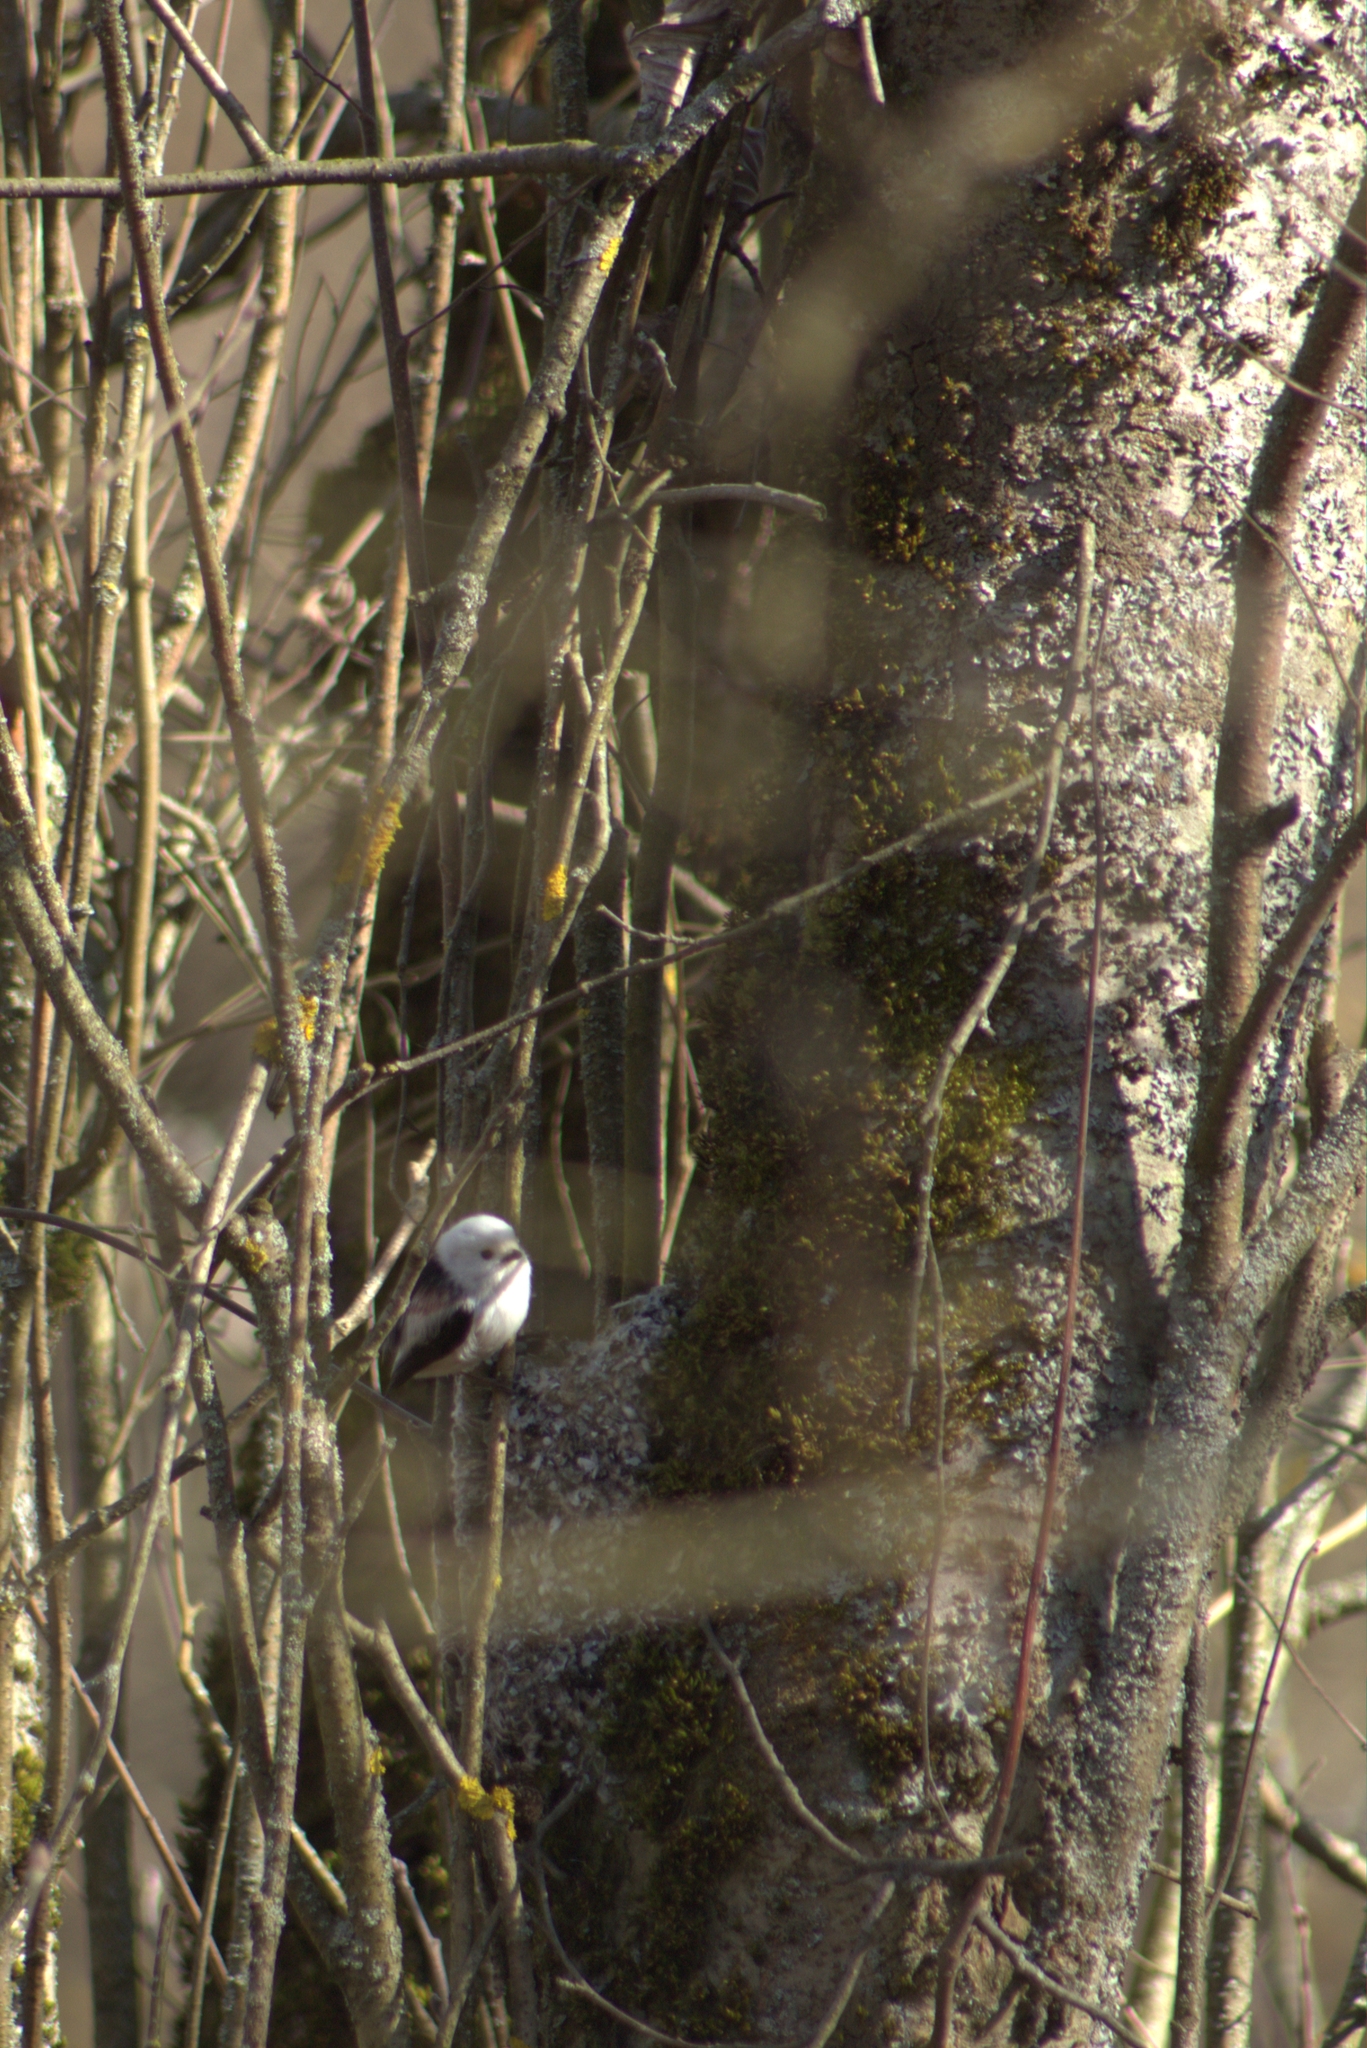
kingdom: Animalia
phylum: Chordata
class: Aves
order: Passeriformes
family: Aegithalidae
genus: Aegithalos
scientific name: Aegithalos caudatus
